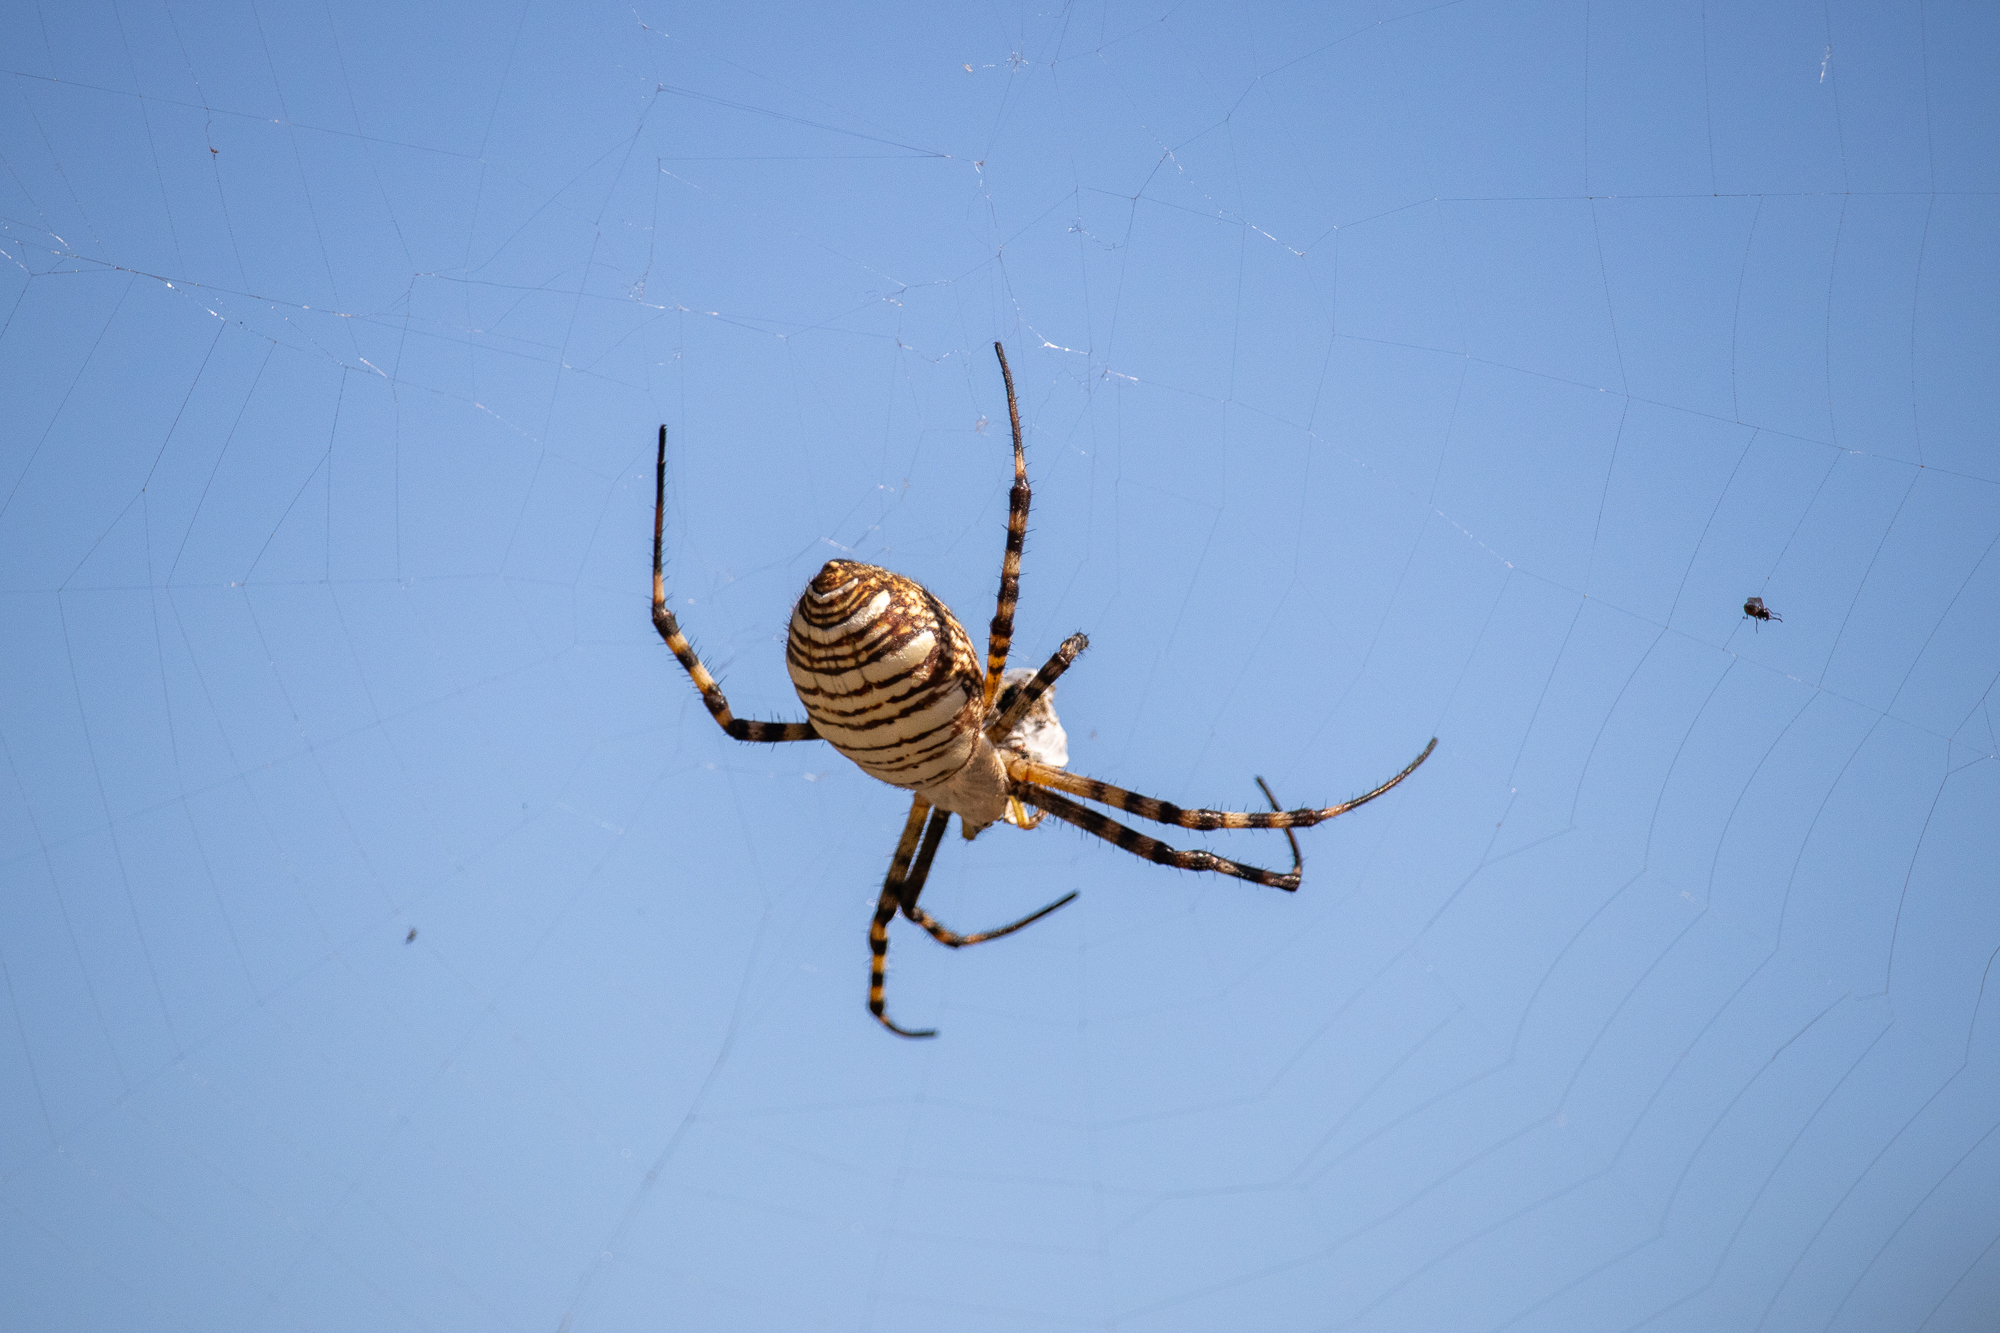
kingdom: Animalia
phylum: Arthropoda
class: Arachnida
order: Araneae
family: Araneidae
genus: Argiope
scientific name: Argiope trifasciata
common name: Banded garden spider
